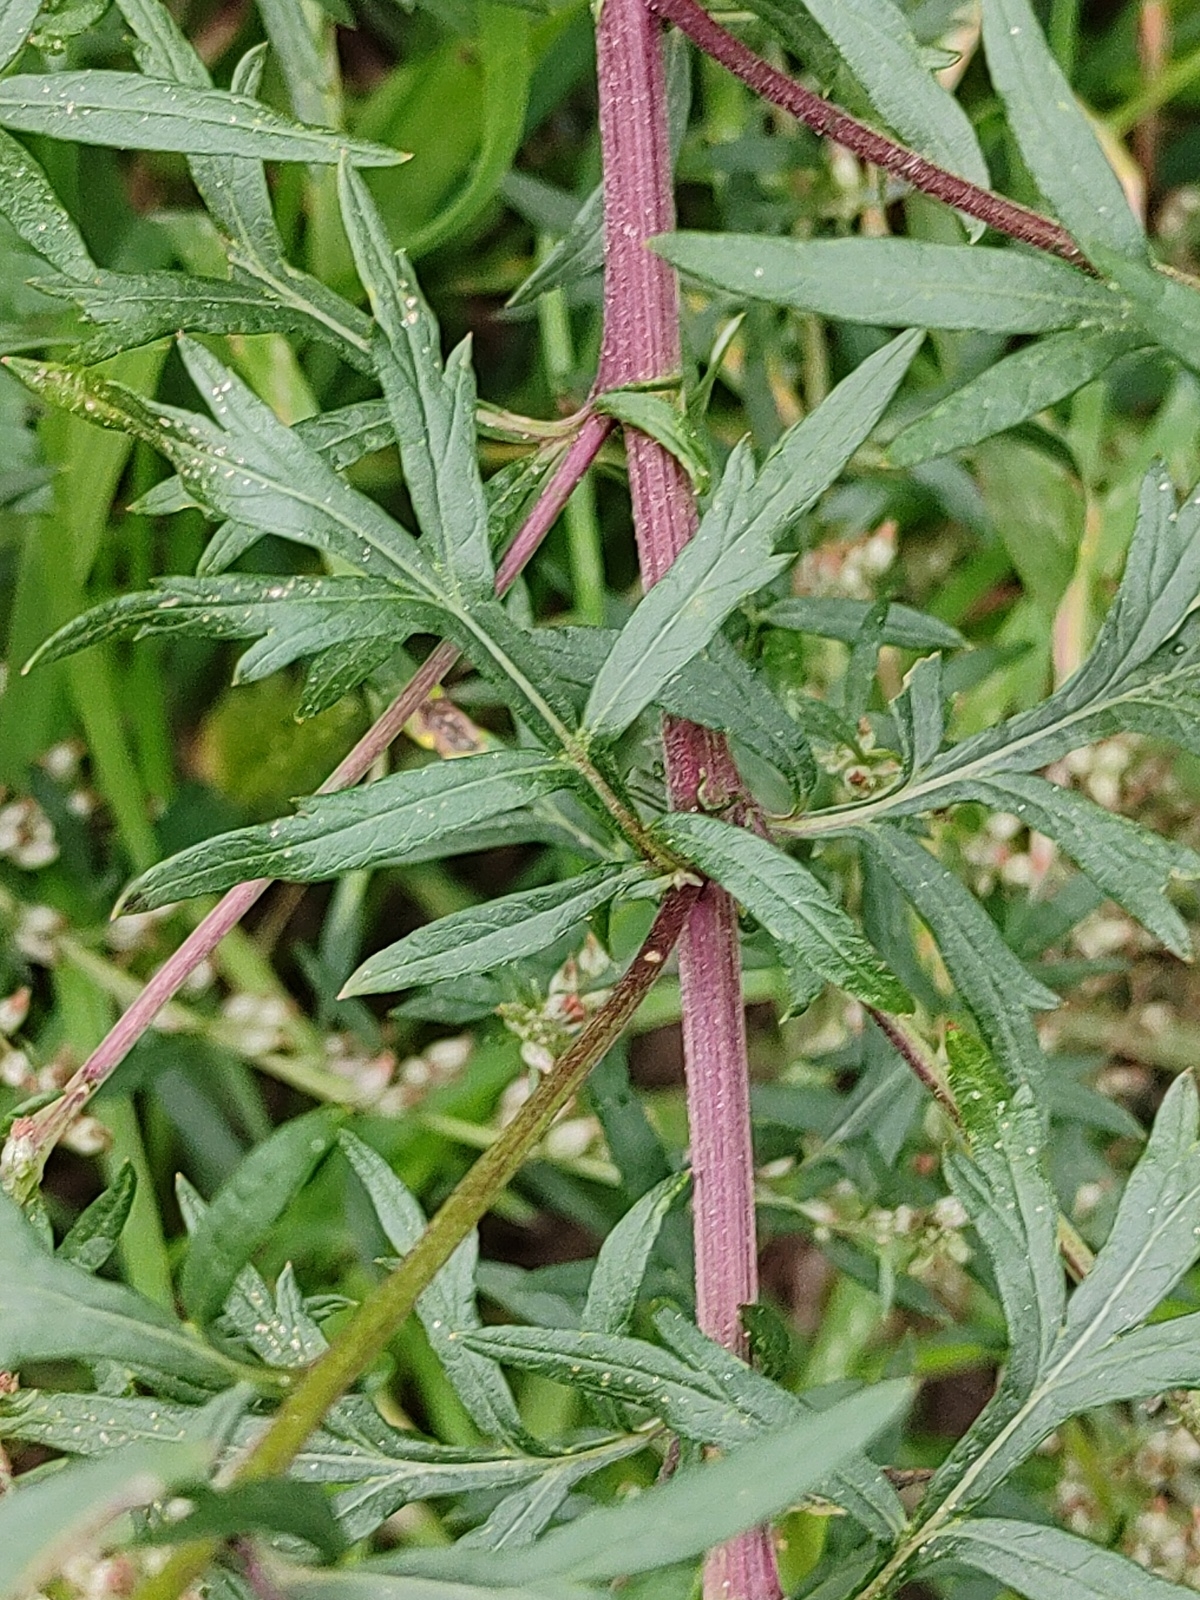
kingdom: Plantae
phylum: Tracheophyta
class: Magnoliopsida
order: Asterales
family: Asteraceae
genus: Artemisia
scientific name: Artemisia vulgaris
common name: Mugwort
